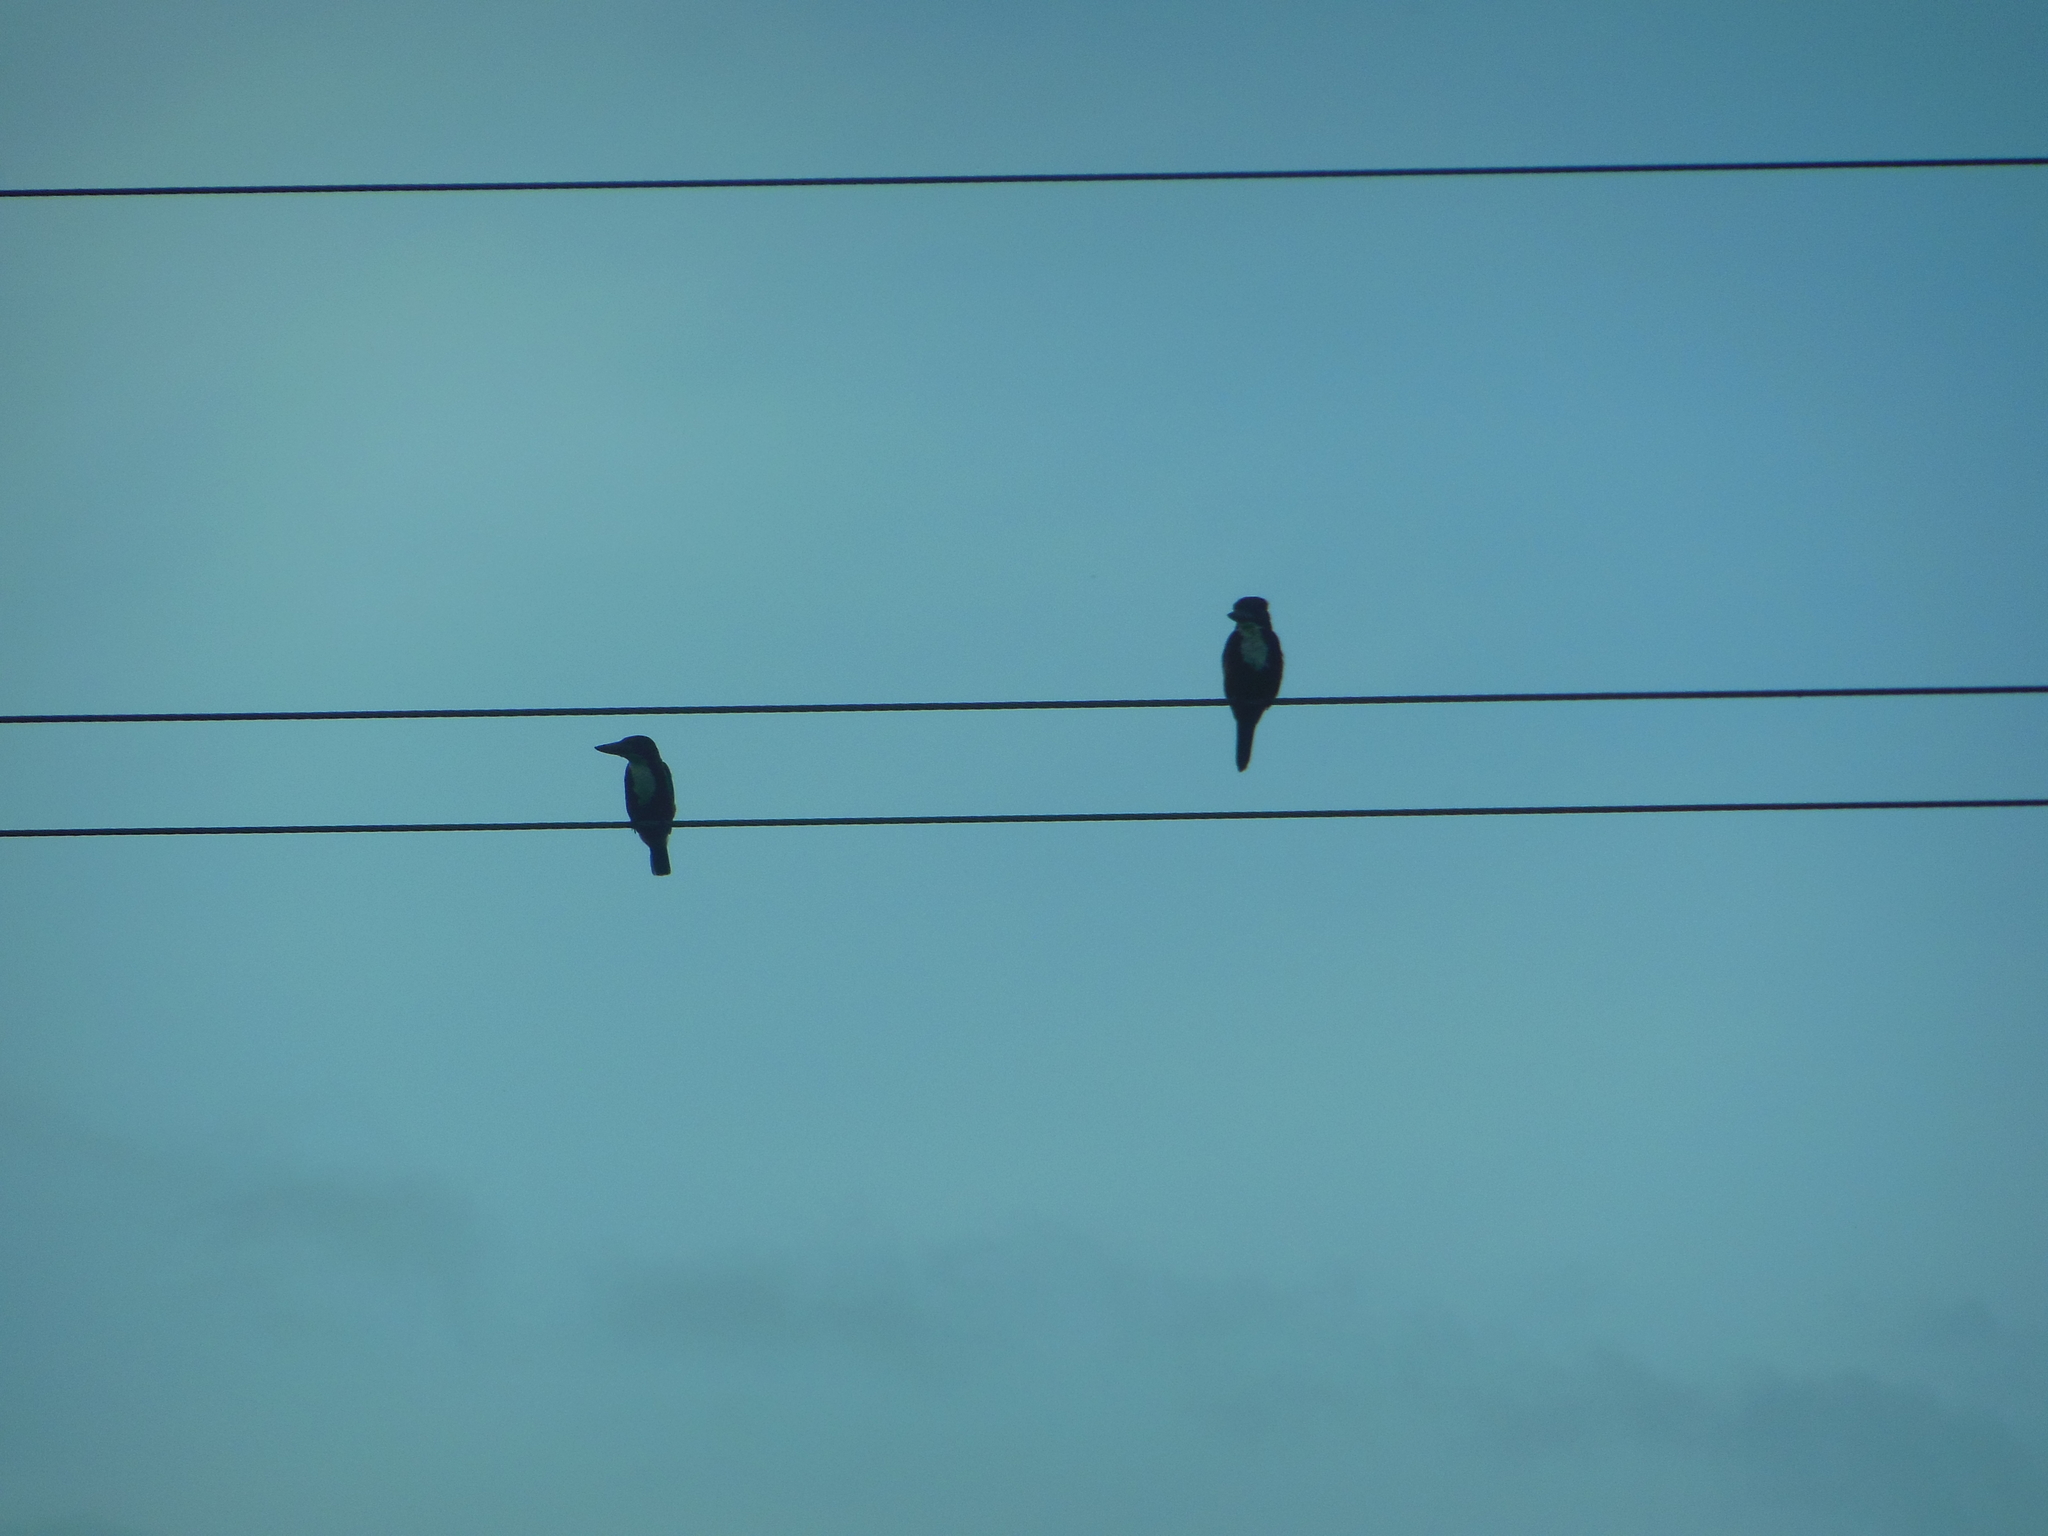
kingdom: Animalia
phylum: Chordata
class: Aves
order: Coraciiformes
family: Alcedinidae
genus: Halcyon
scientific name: Halcyon smyrnensis
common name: White-throated kingfisher
